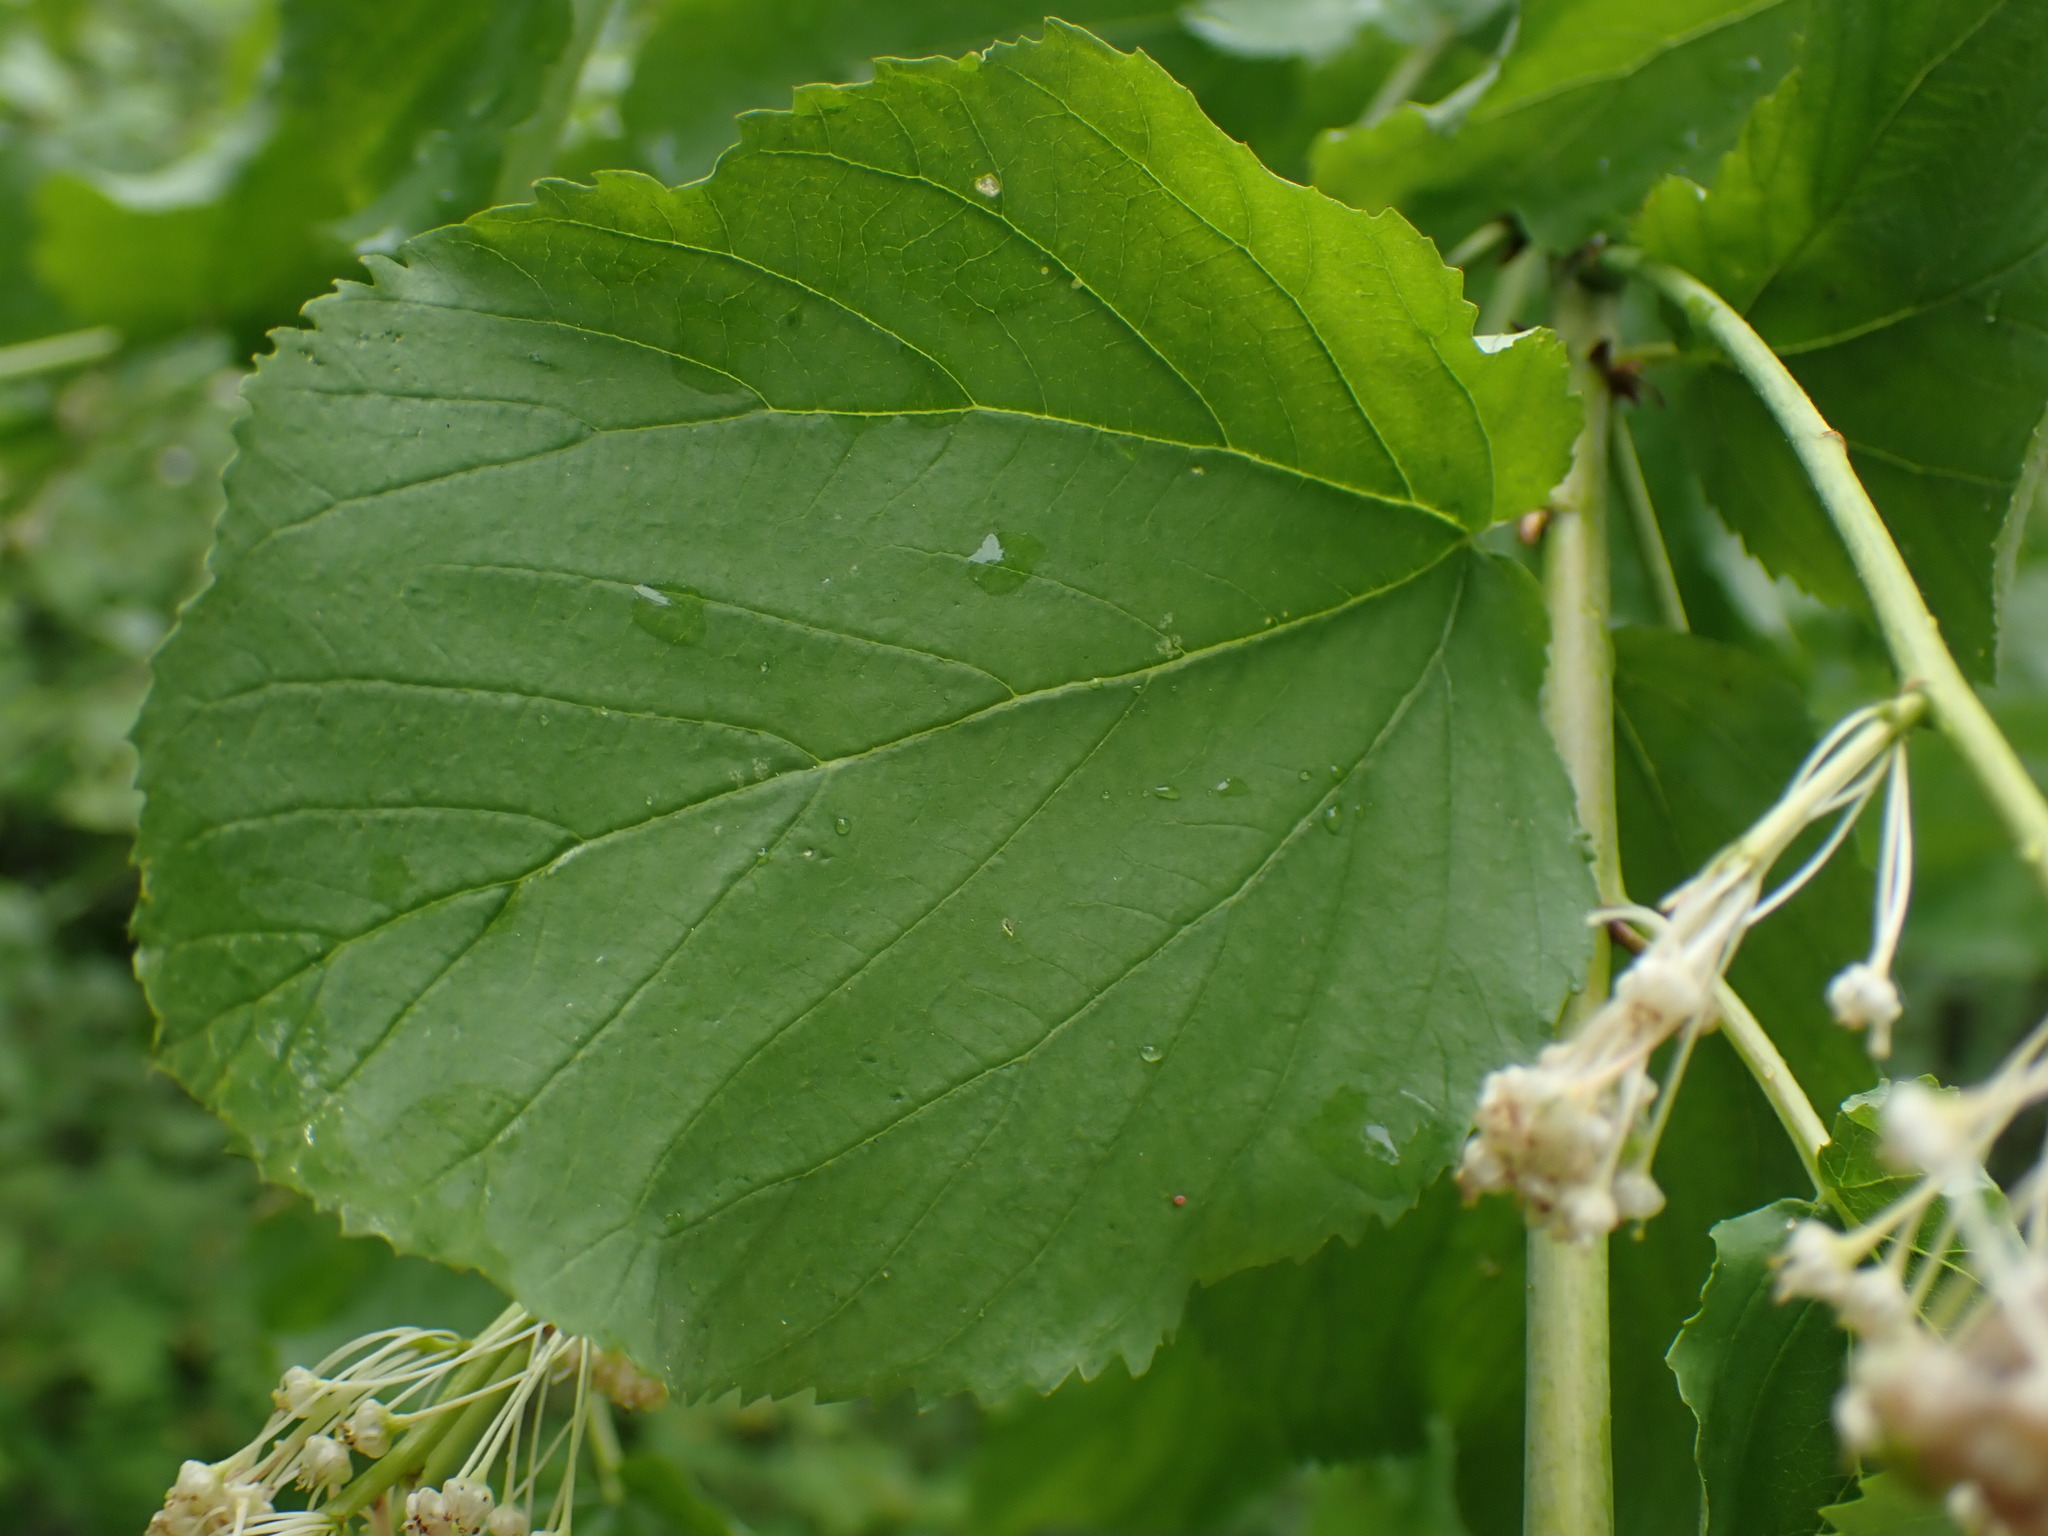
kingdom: Plantae
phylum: Tracheophyta
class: Magnoliopsida
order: Rosales
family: Rhamnaceae
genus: Ceanothus
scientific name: Ceanothus sanguineus
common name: Teatree
